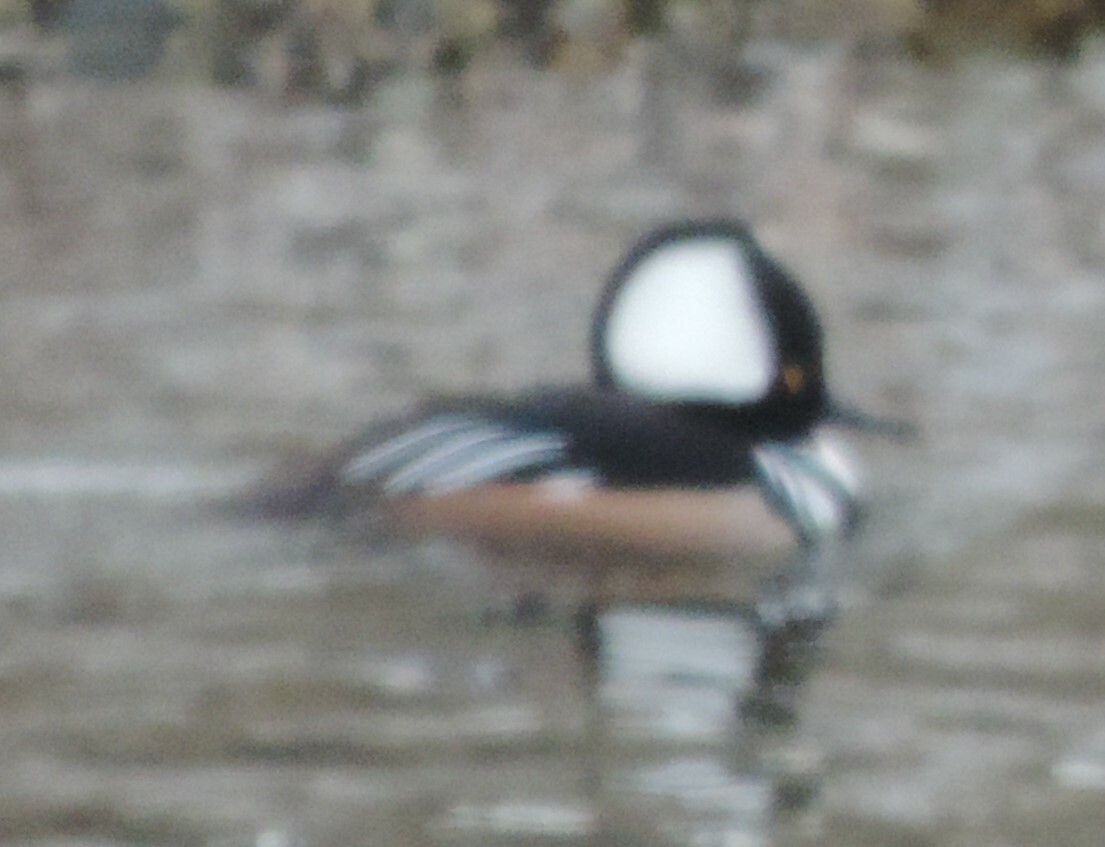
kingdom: Animalia
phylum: Chordata
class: Aves
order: Anseriformes
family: Anatidae
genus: Lophodytes
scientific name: Lophodytes cucullatus
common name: Hooded merganser
